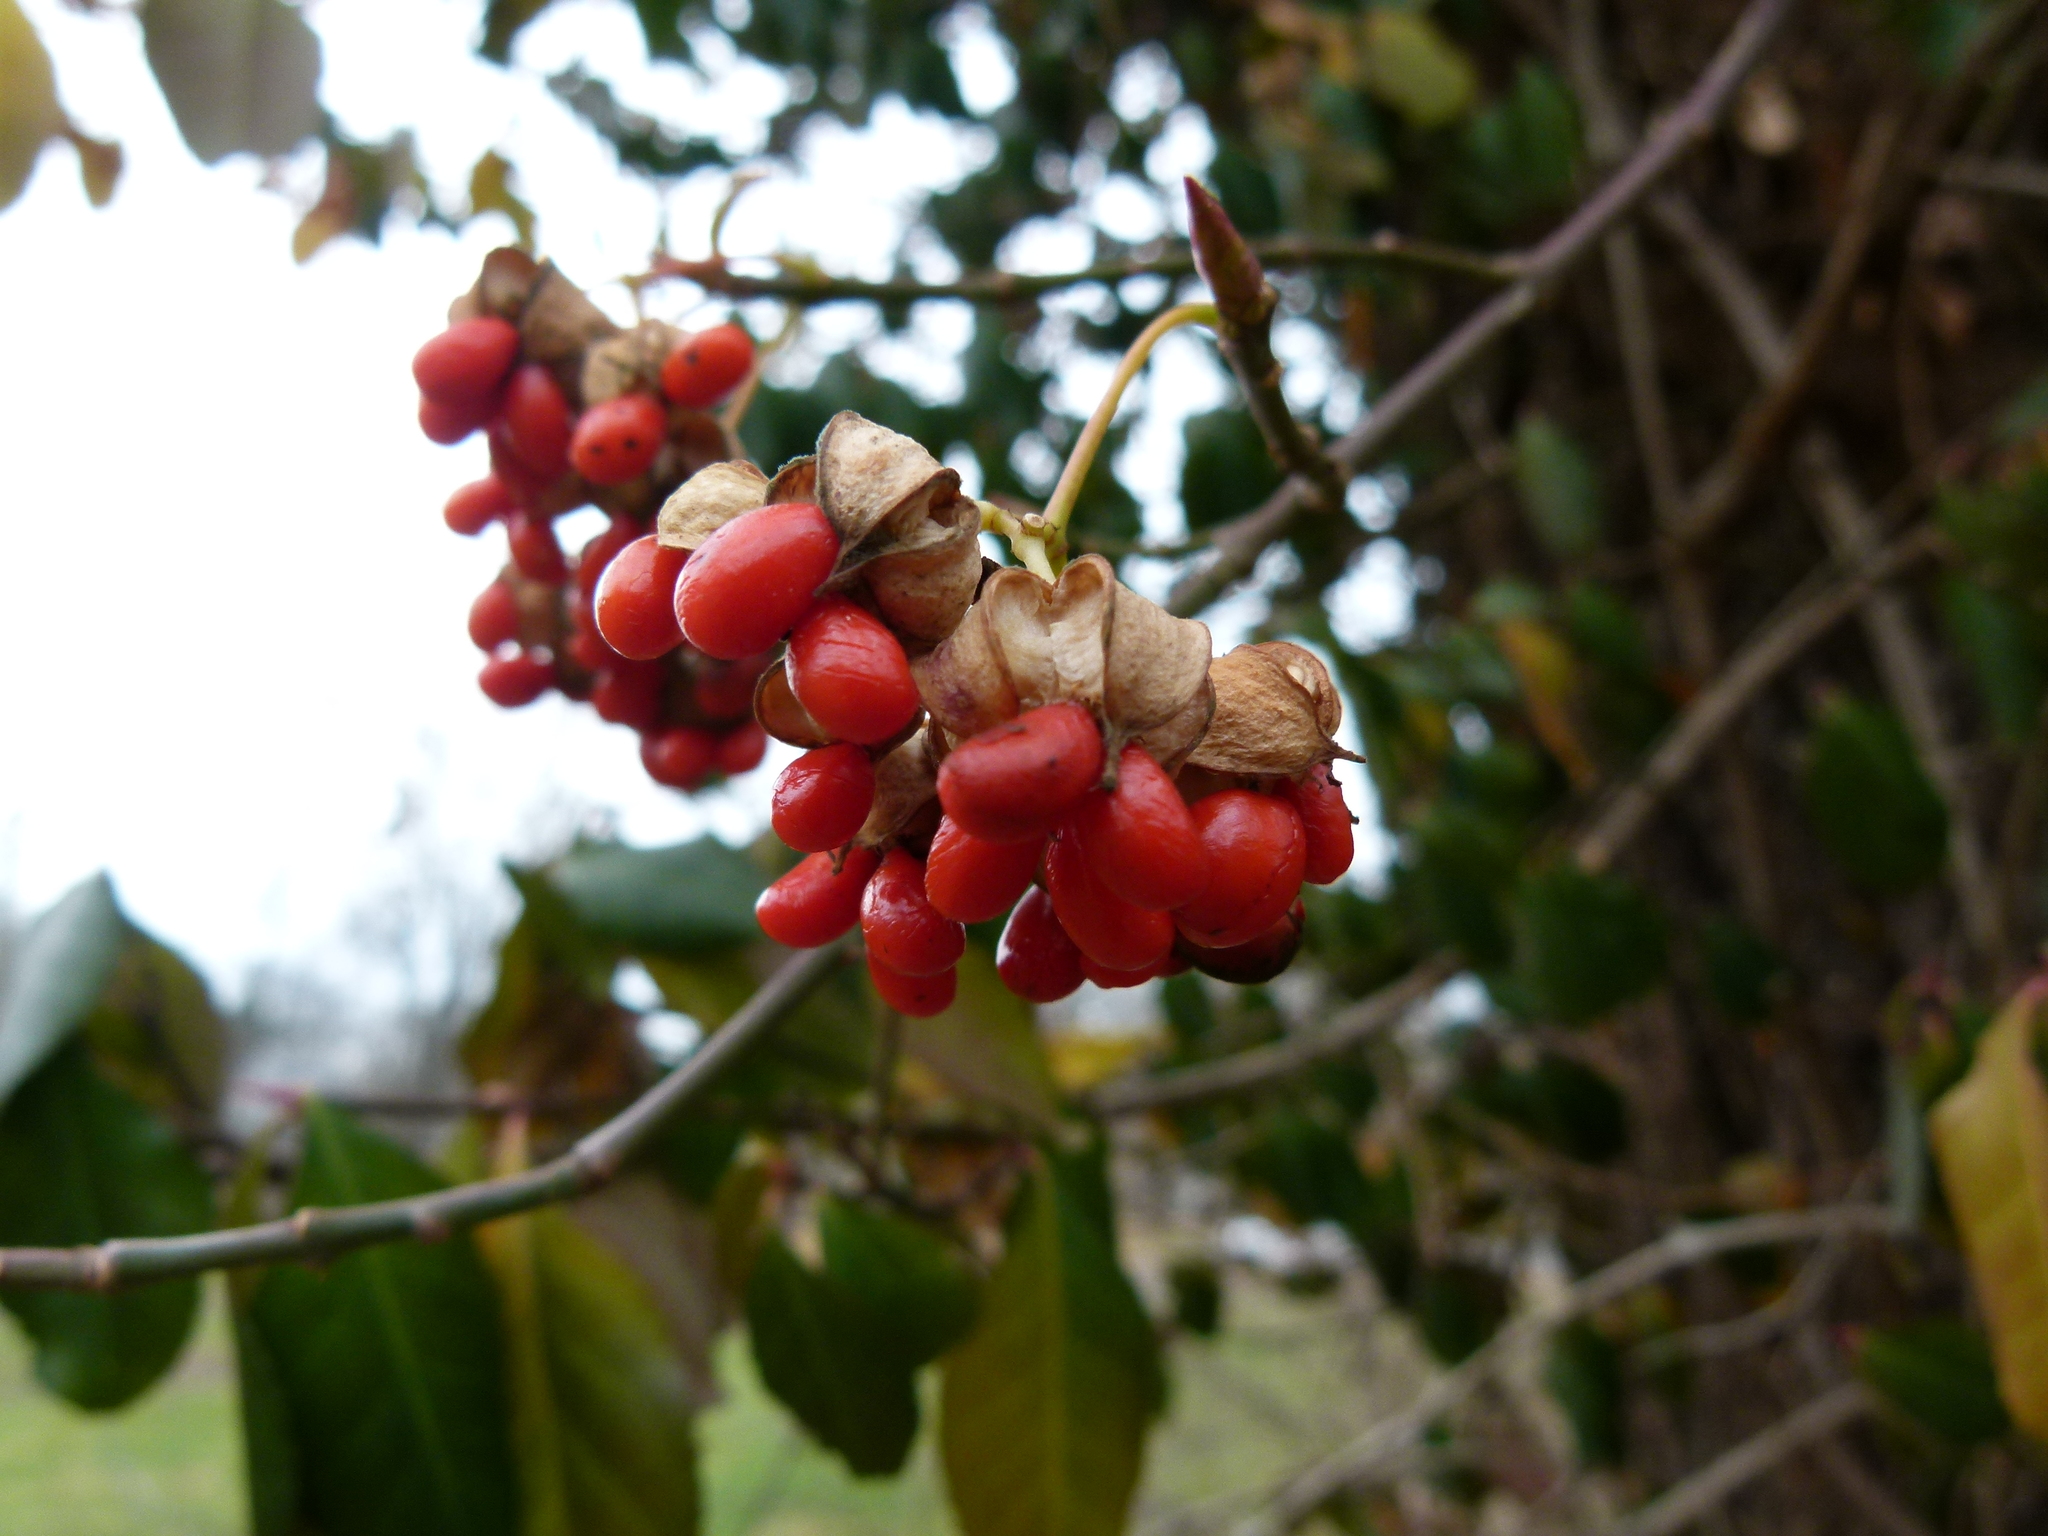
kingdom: Plantae
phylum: Tracheophyta
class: Magnoliopsida
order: Celastrales
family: Celastraceae
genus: Euonymus
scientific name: Euonymus fortunei
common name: Climbing euonymus
